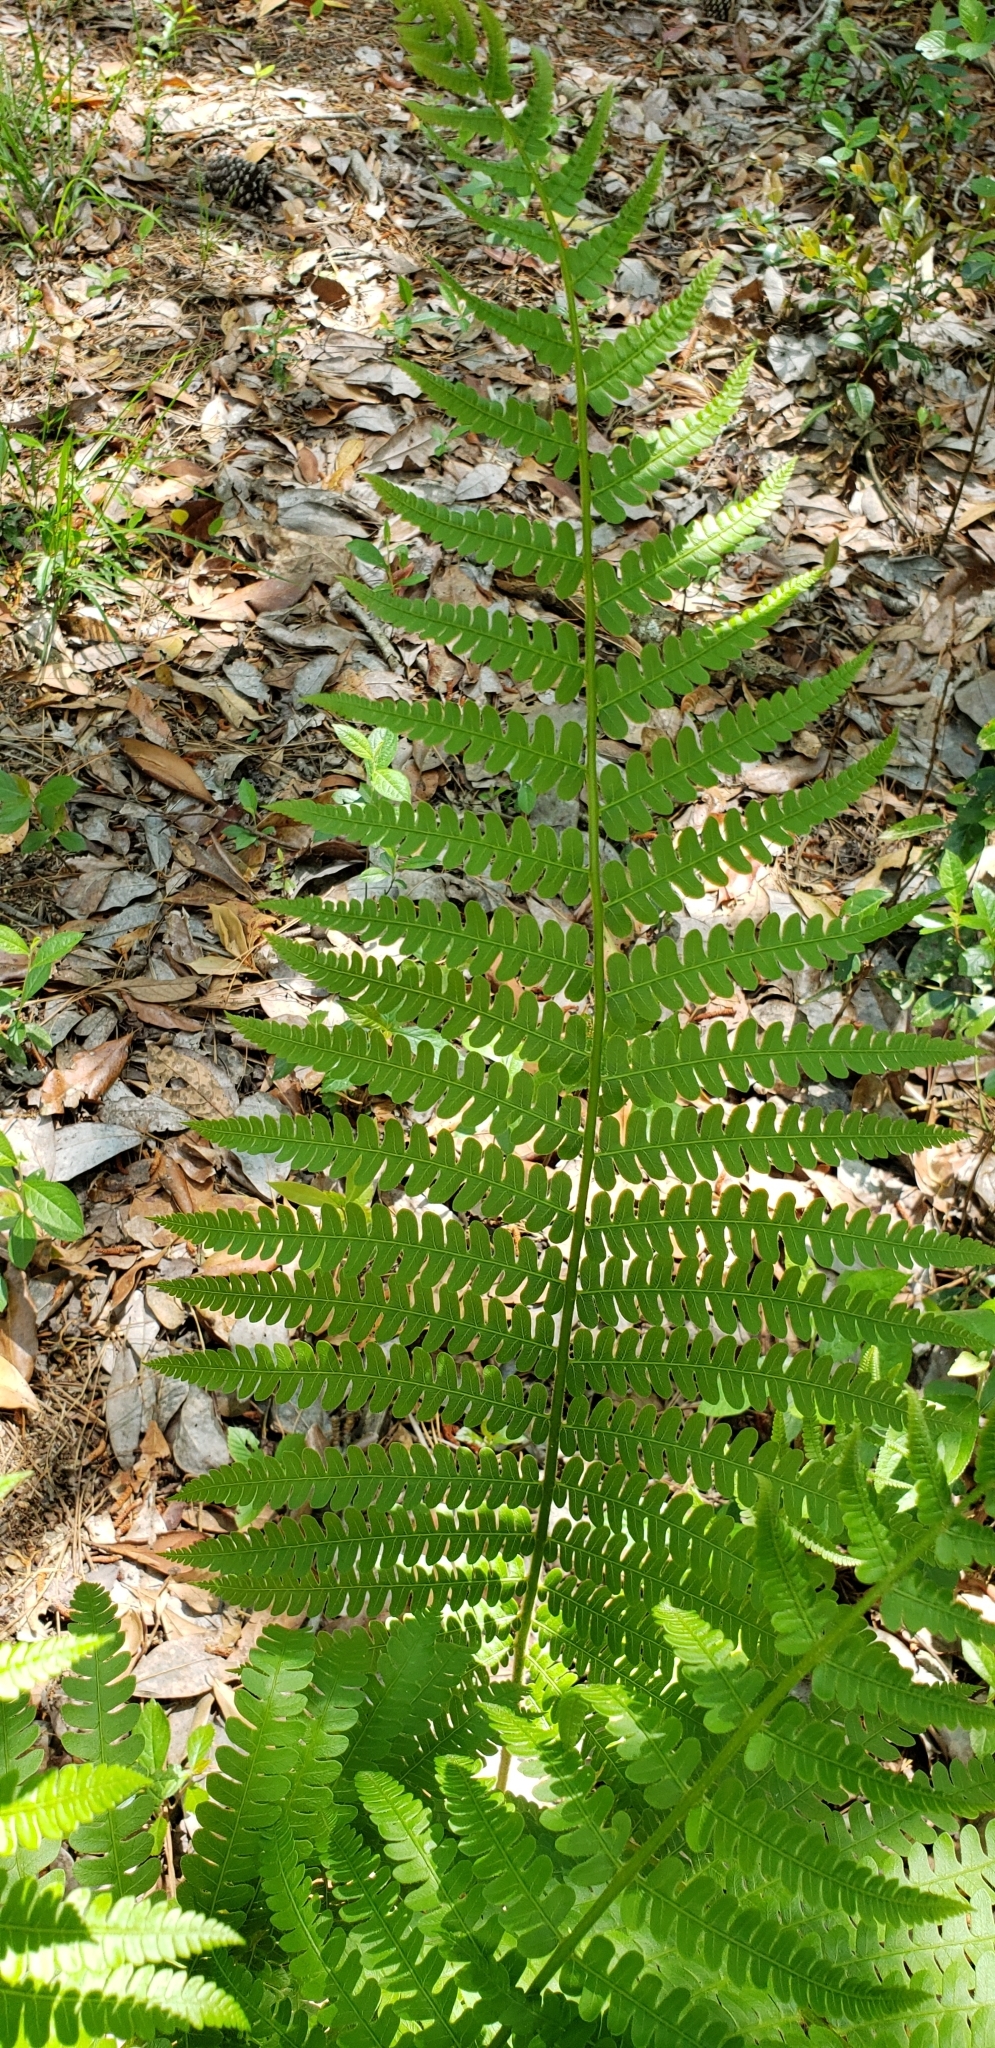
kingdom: Plantae
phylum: Tracheophyta
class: Polypodiopsida
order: Osmundales
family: Osmundaceae
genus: Osmundastrum
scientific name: Osmundastrum cinnamomeum
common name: Cinnamon fern
